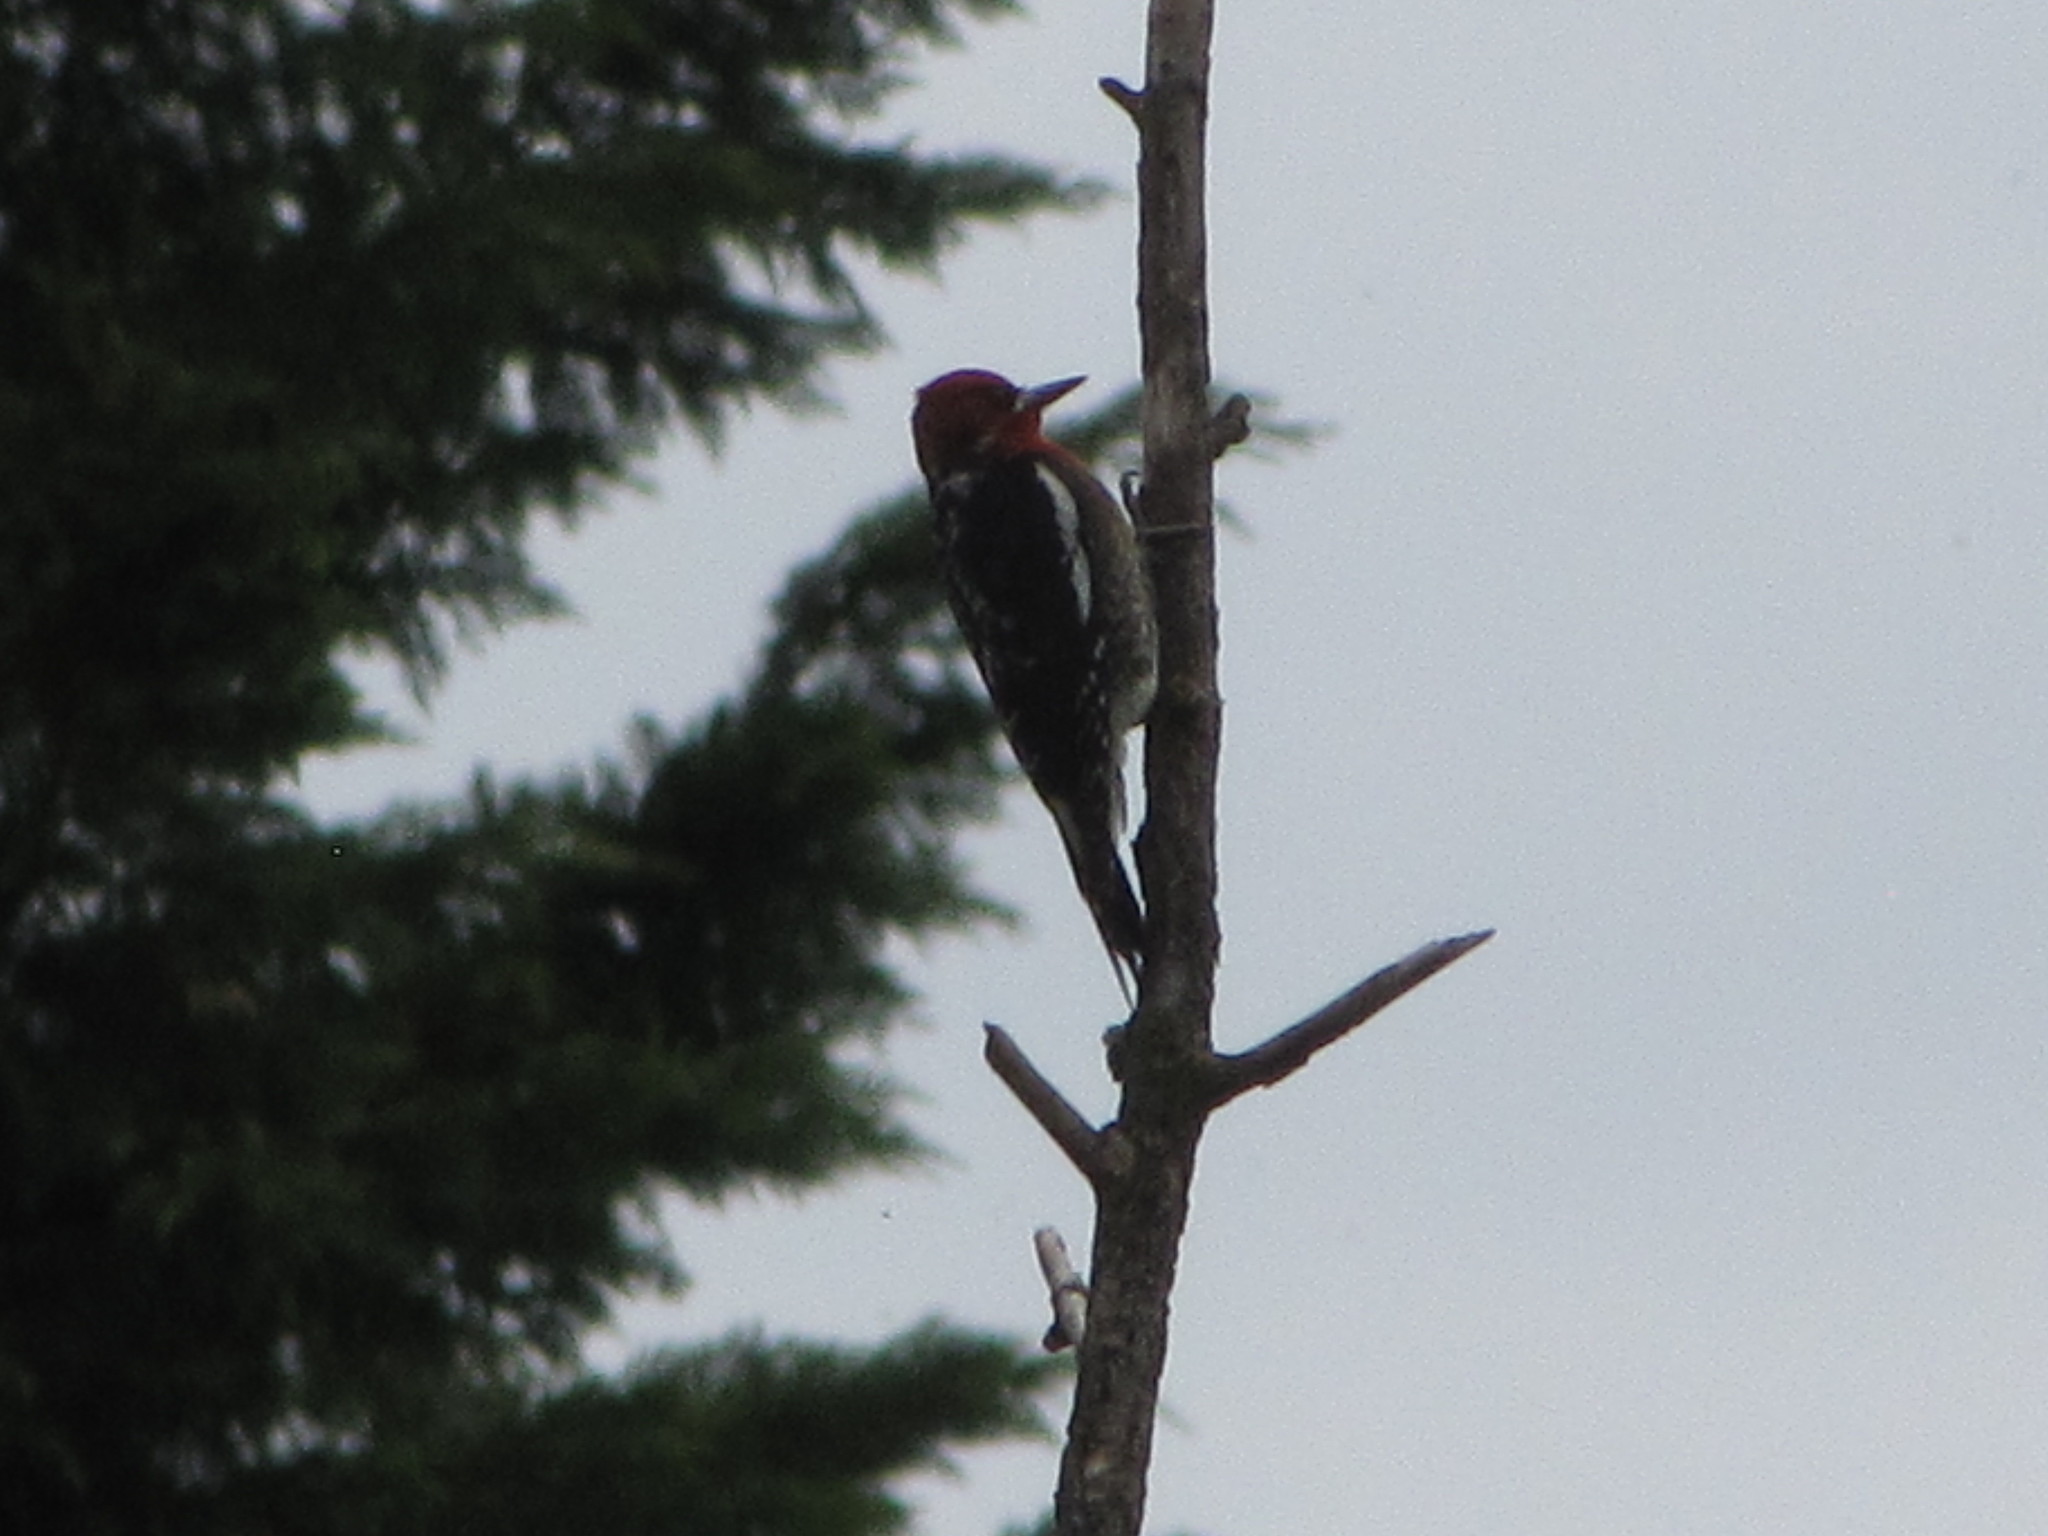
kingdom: Animalia
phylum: Chordata
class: Aves
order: Piciformes
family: Picidae
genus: Sphyrapicus
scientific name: Sphyrapicus ruber
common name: Red-breasted sapsucker
